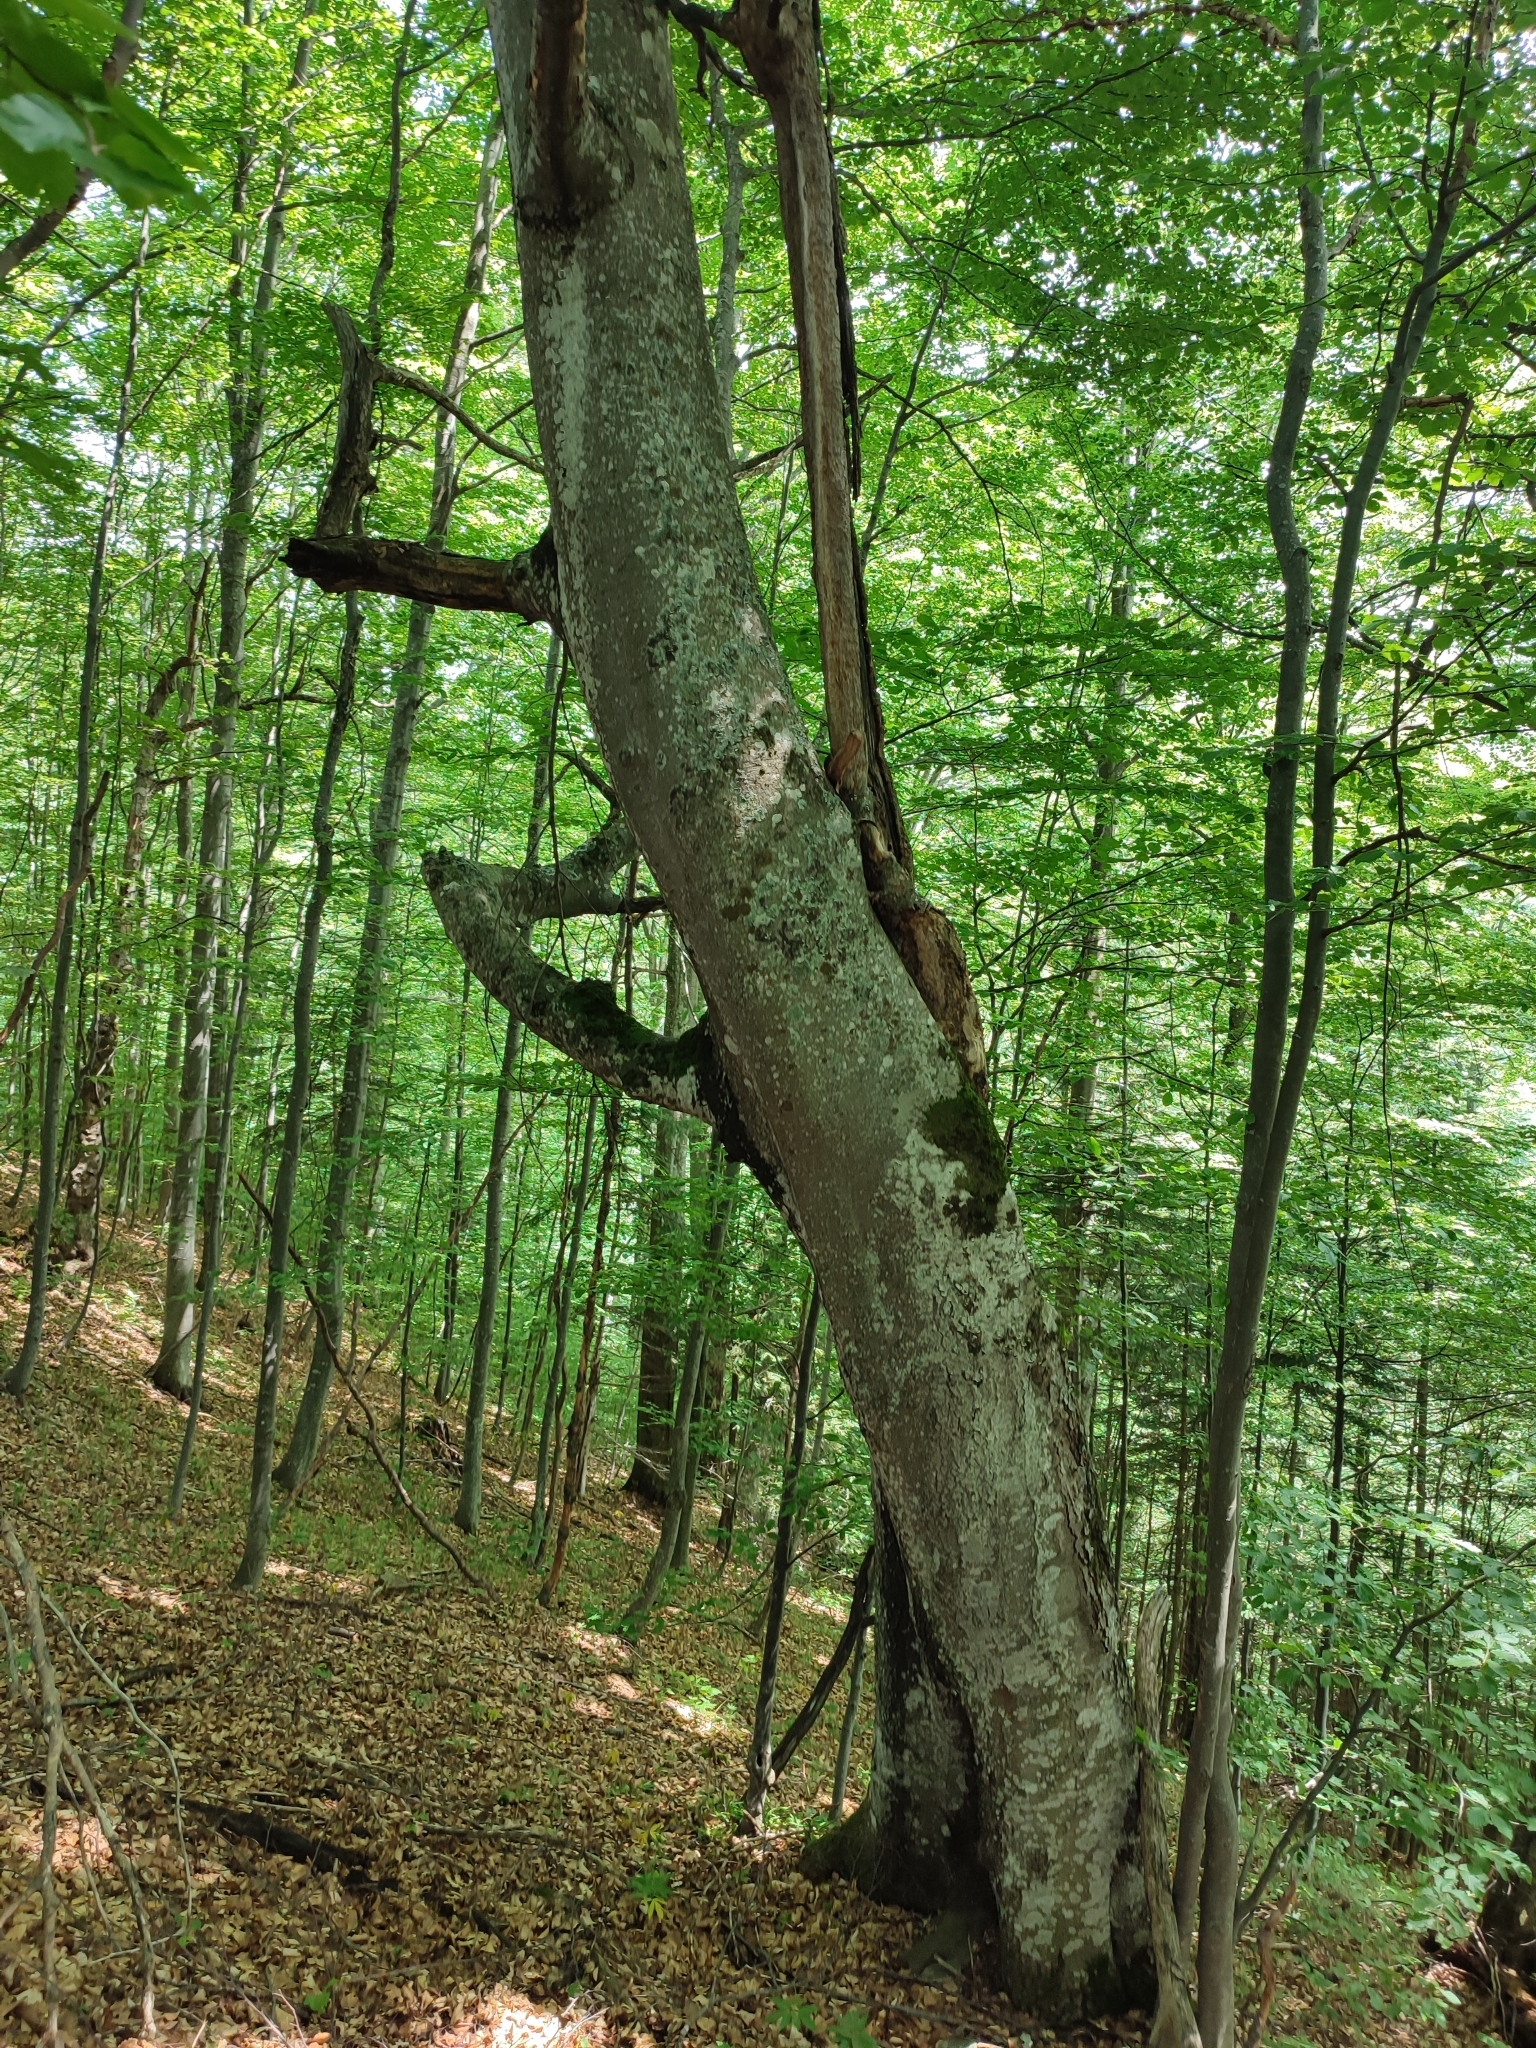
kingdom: Plantae
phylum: Tracheophyta
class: Magnoliopsida
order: Fagales
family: Fagaceae
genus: Fagus
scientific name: Fagus sylvatica
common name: Beech
